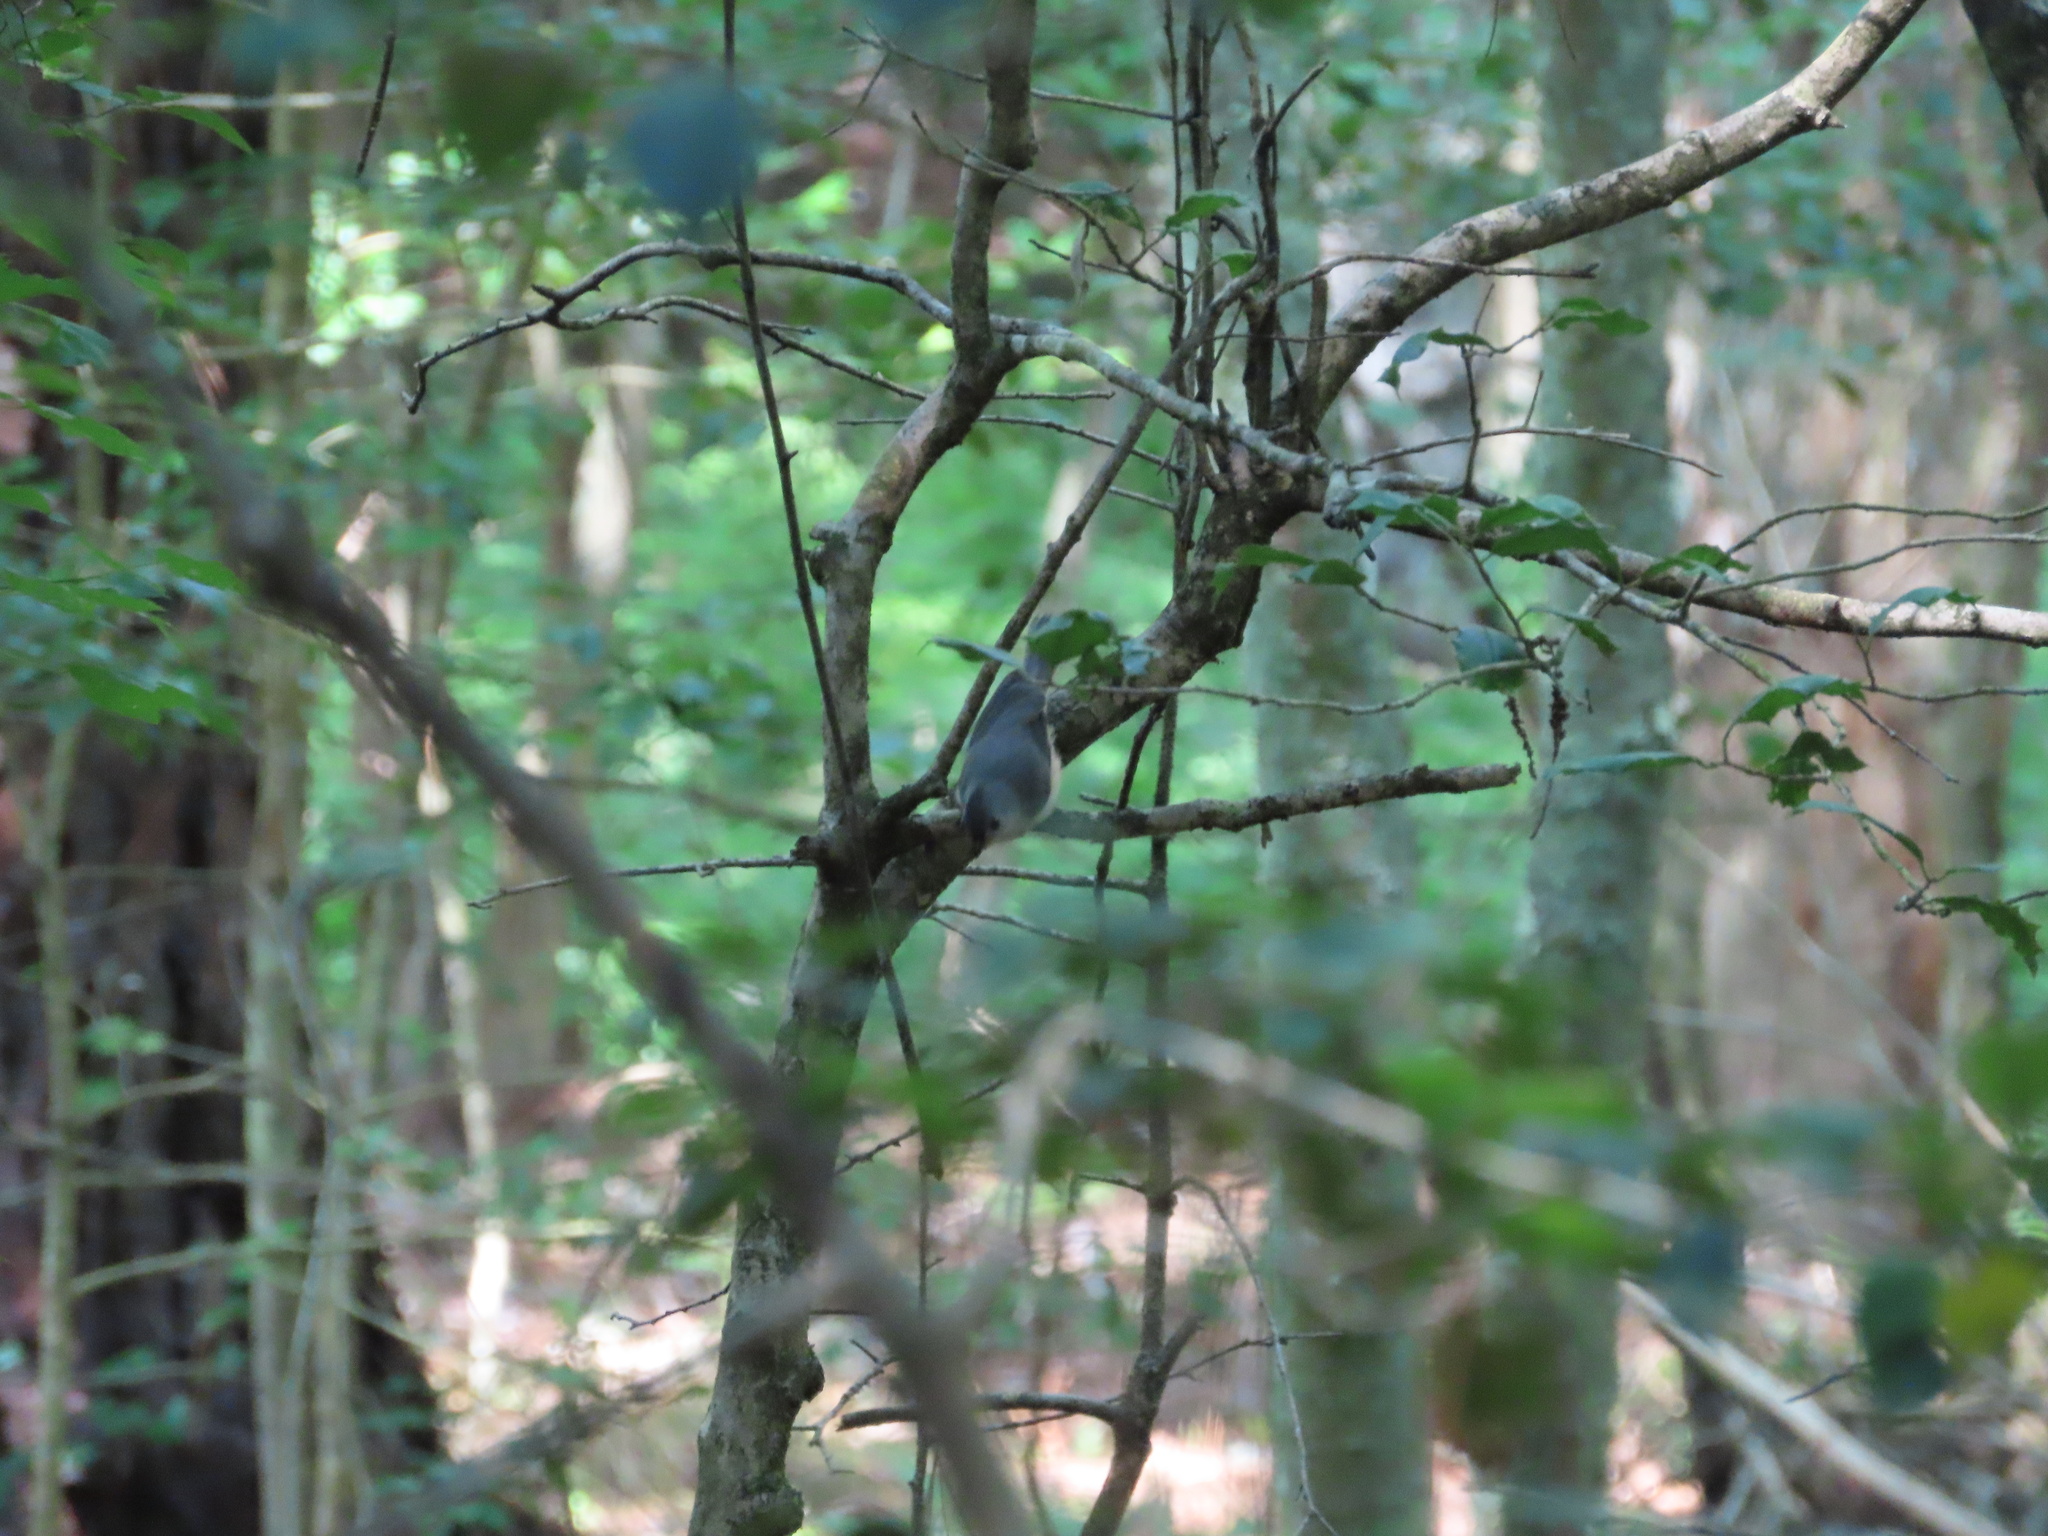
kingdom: Animalia
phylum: Chordata
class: Aves
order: Passeriformes
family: Paridae
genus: Baeolophus
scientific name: Baeolophus bicolor
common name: Tufted titmouse
